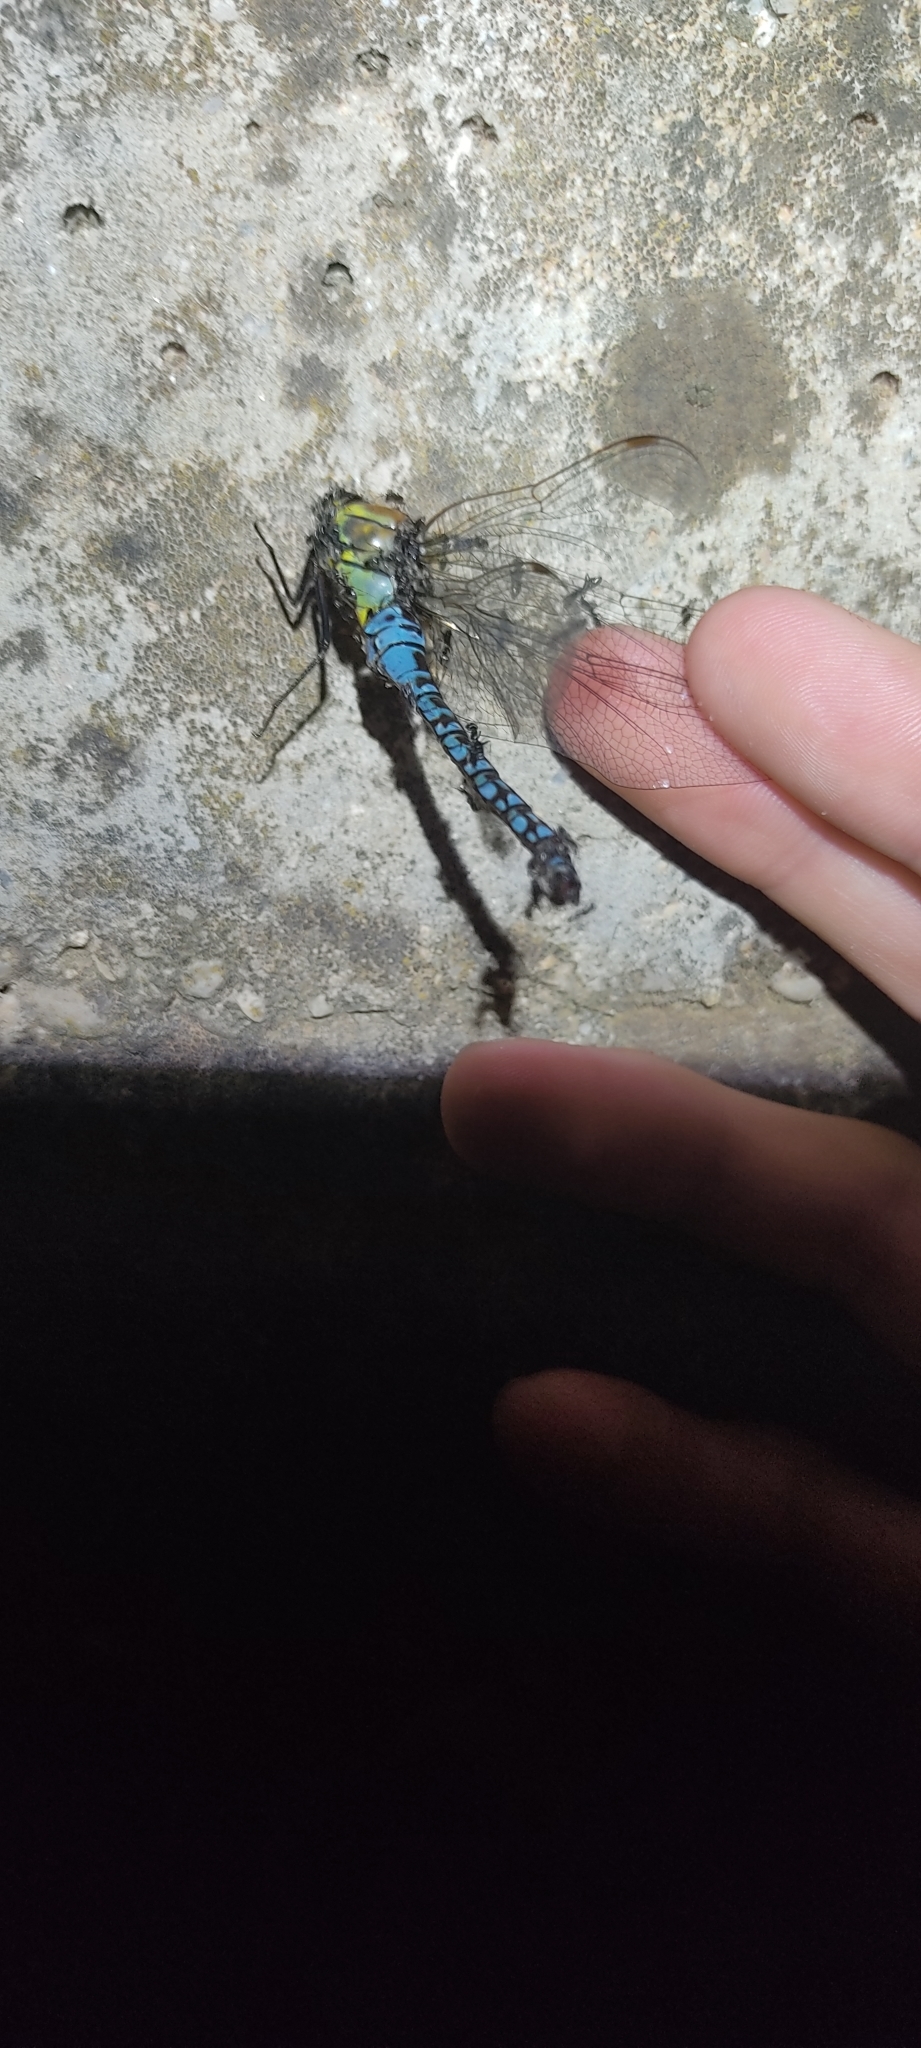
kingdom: Animalia
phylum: Arthropoda
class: Insecta
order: Odonata
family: Aeshnidae
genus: Aeshna
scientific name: Aeshna affinis
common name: Southern migrant hawker
